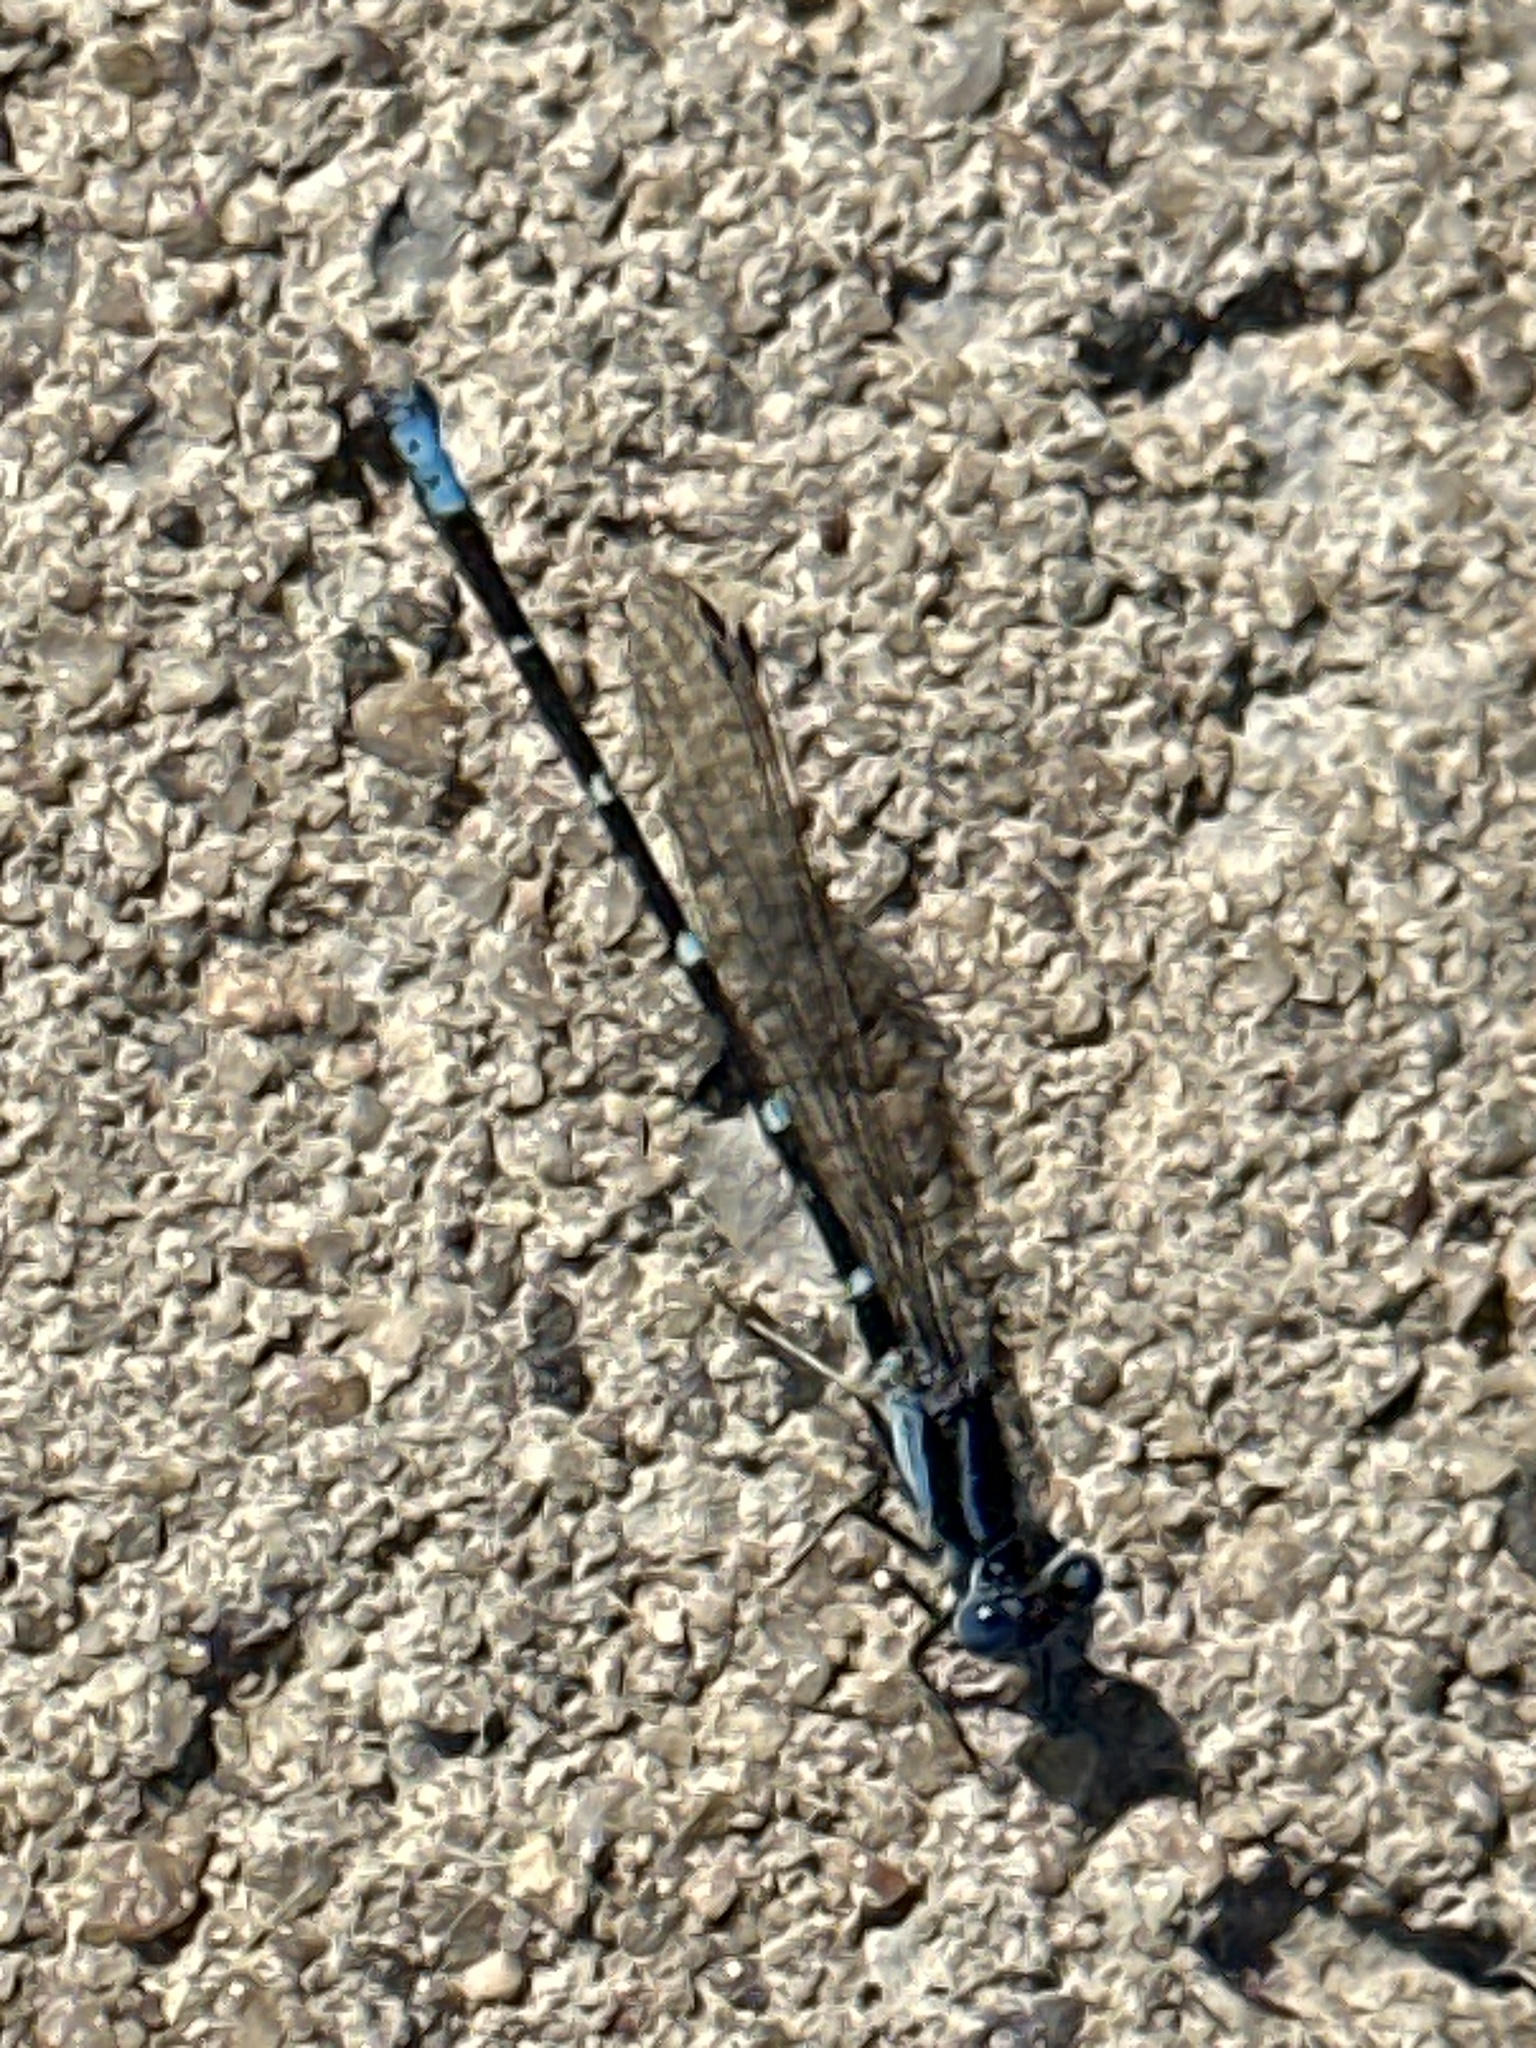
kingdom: Animalia
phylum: Arthropoda
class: Insecta
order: Odonata
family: Coenagrionidae
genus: Argia
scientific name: Argia sedula
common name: Blue-ringed dancer
